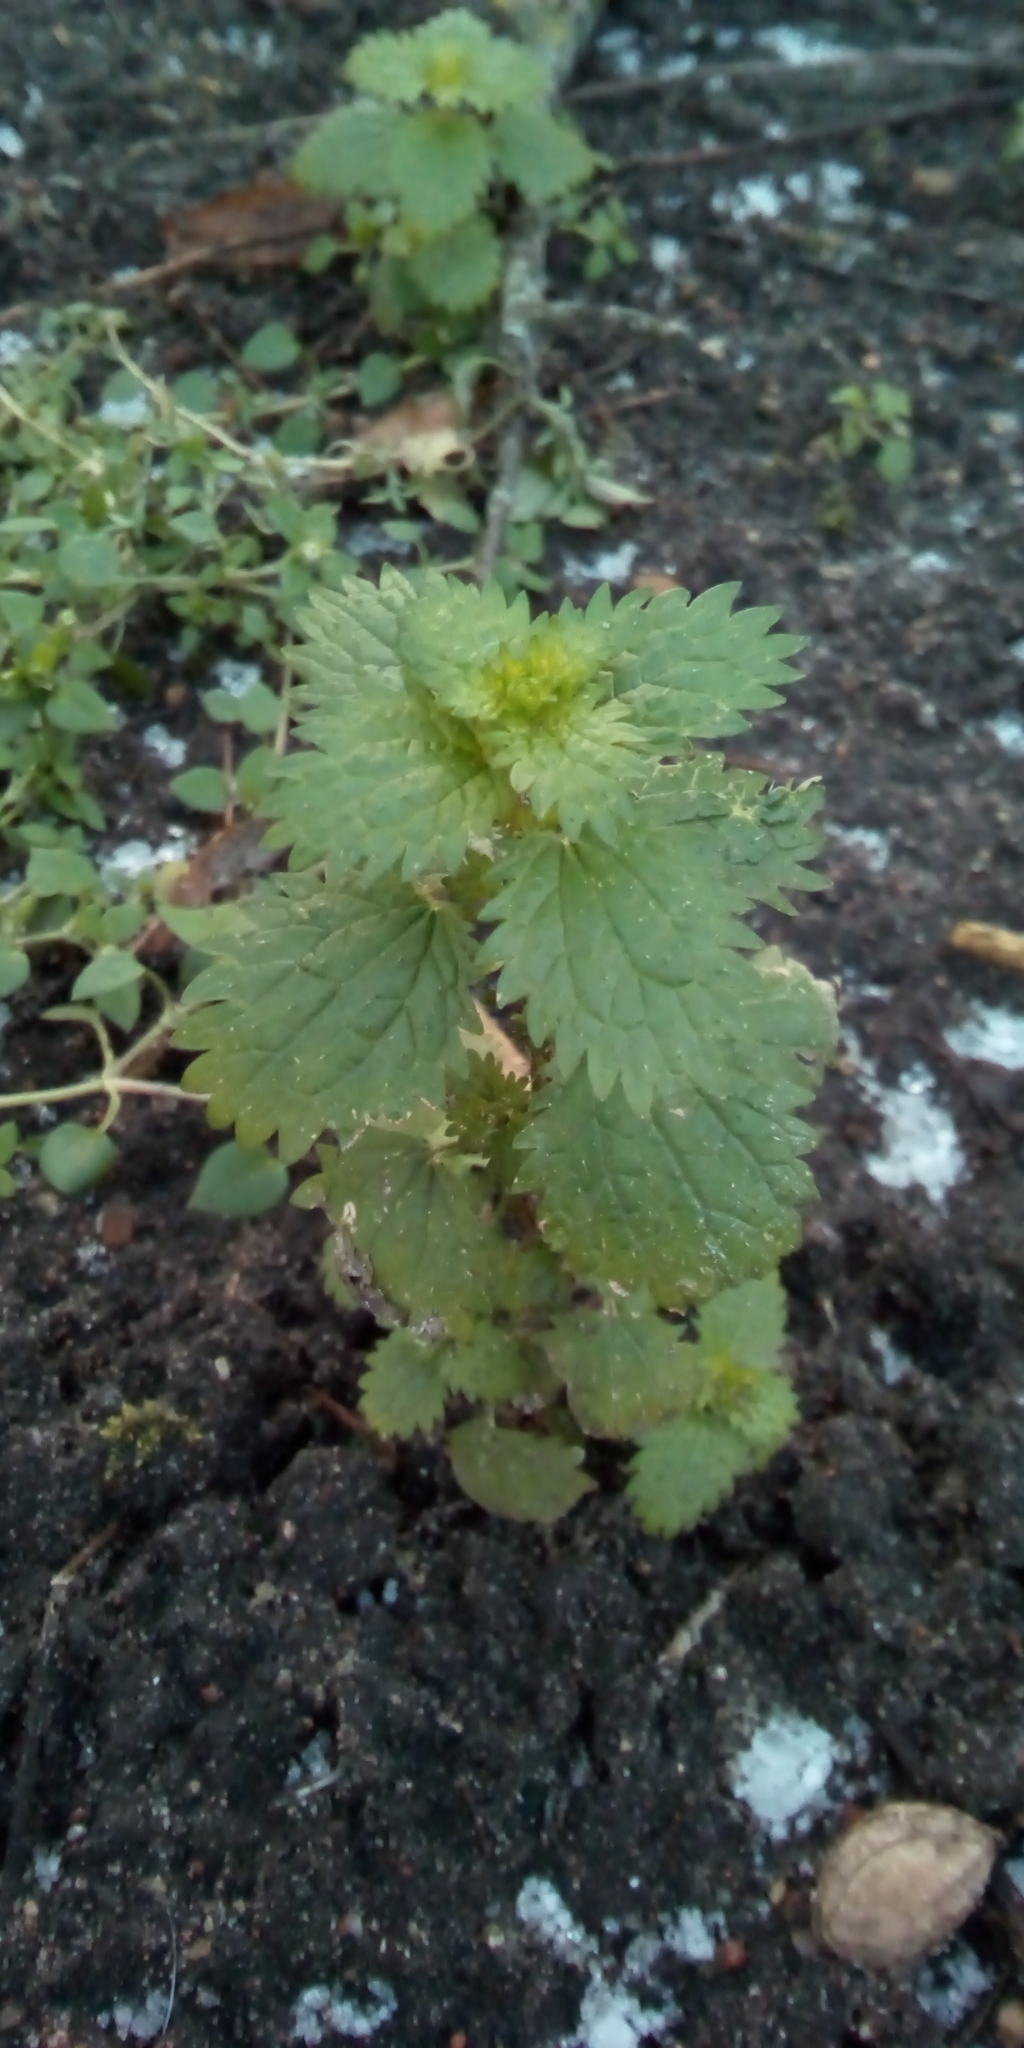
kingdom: Plantae
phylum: Tracheophyta
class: Magnoliopsida
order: Rosales
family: Urticaceae
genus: Urtica
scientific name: Urtica urens
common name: Dwarf nettle
